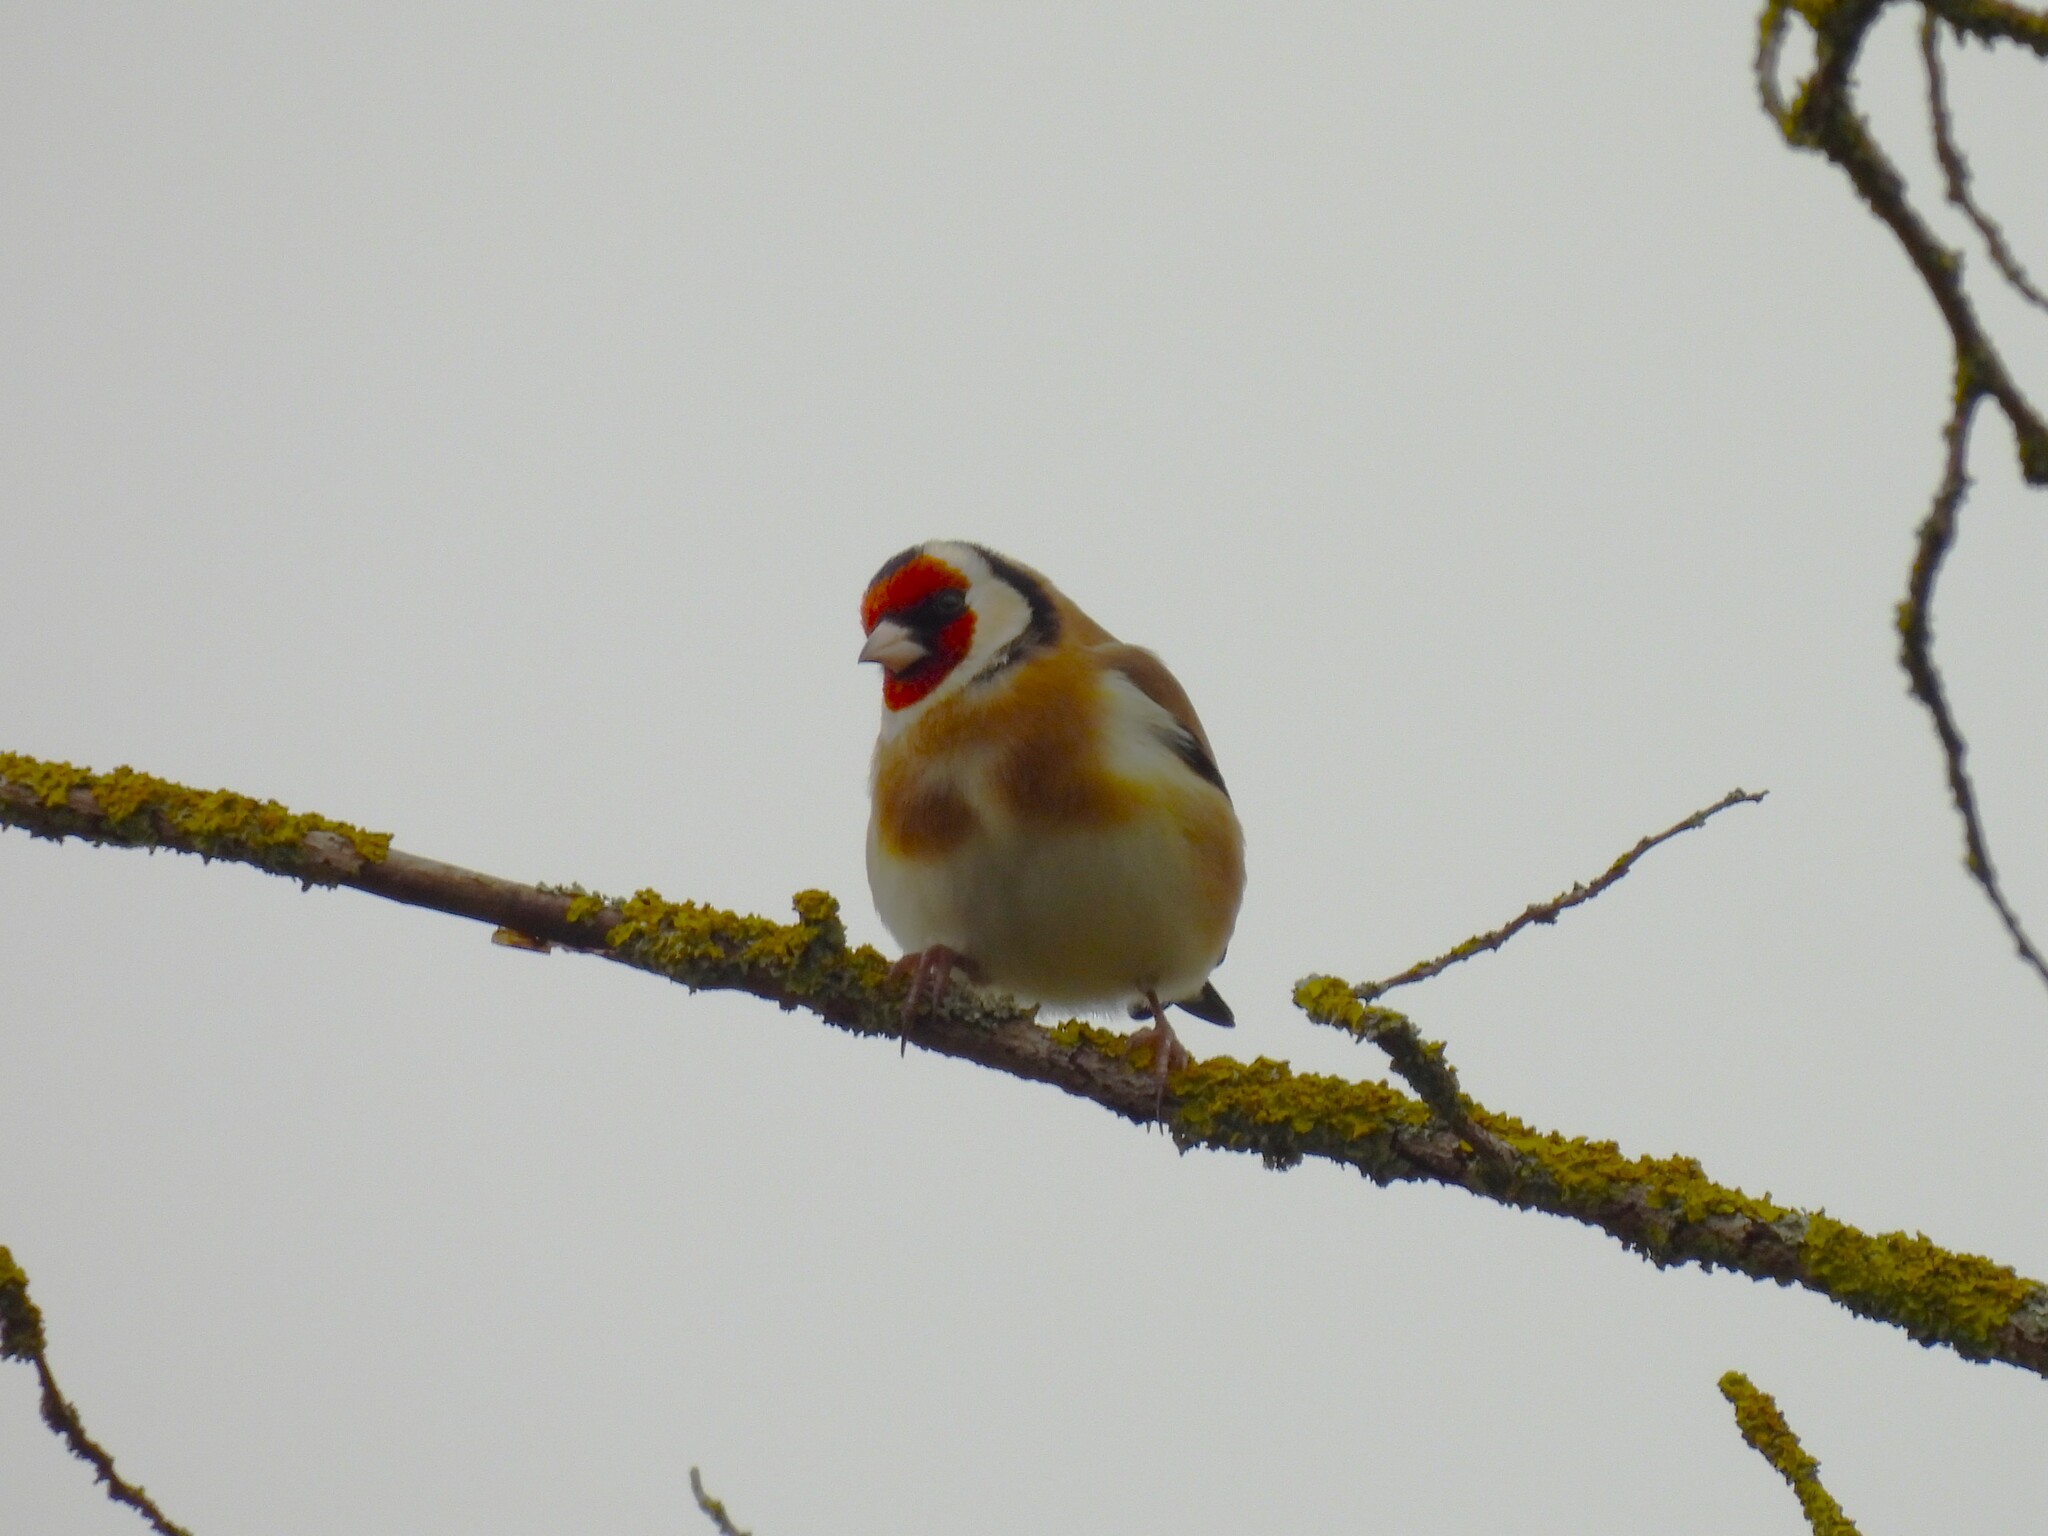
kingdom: Animalia
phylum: Chordata
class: Aves
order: Passeriformes
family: Fringillidae
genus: Carduelis
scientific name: Carduelis carduelis
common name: European goldfinch
